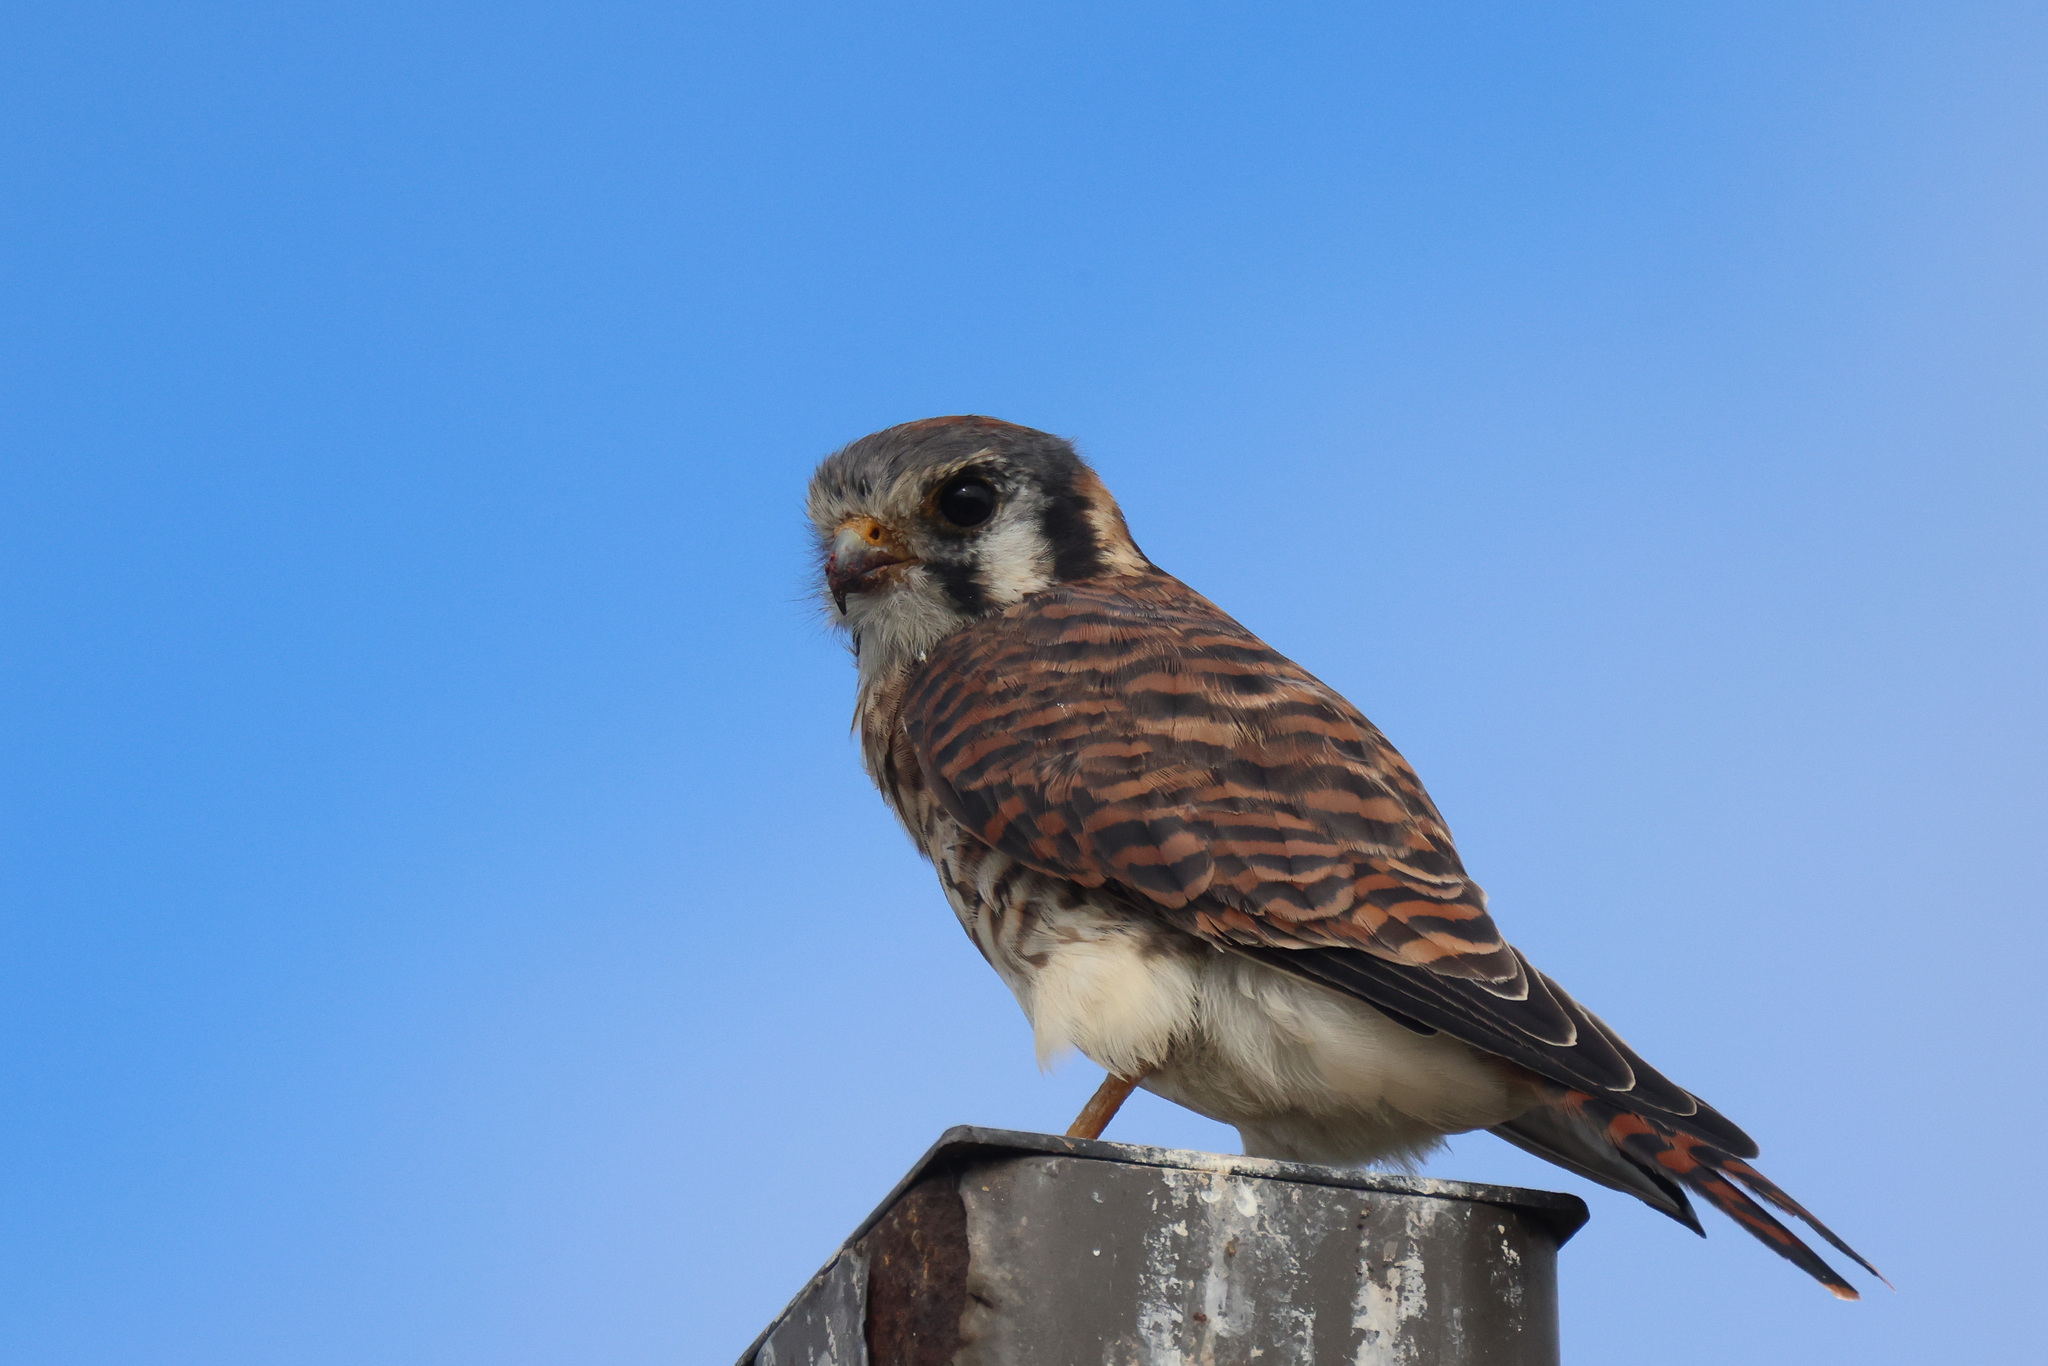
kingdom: Animalia
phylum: Chordata
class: Aves
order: Falconiformes
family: Falconidae
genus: Falco
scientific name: Falco sparverius
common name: American kestrel
